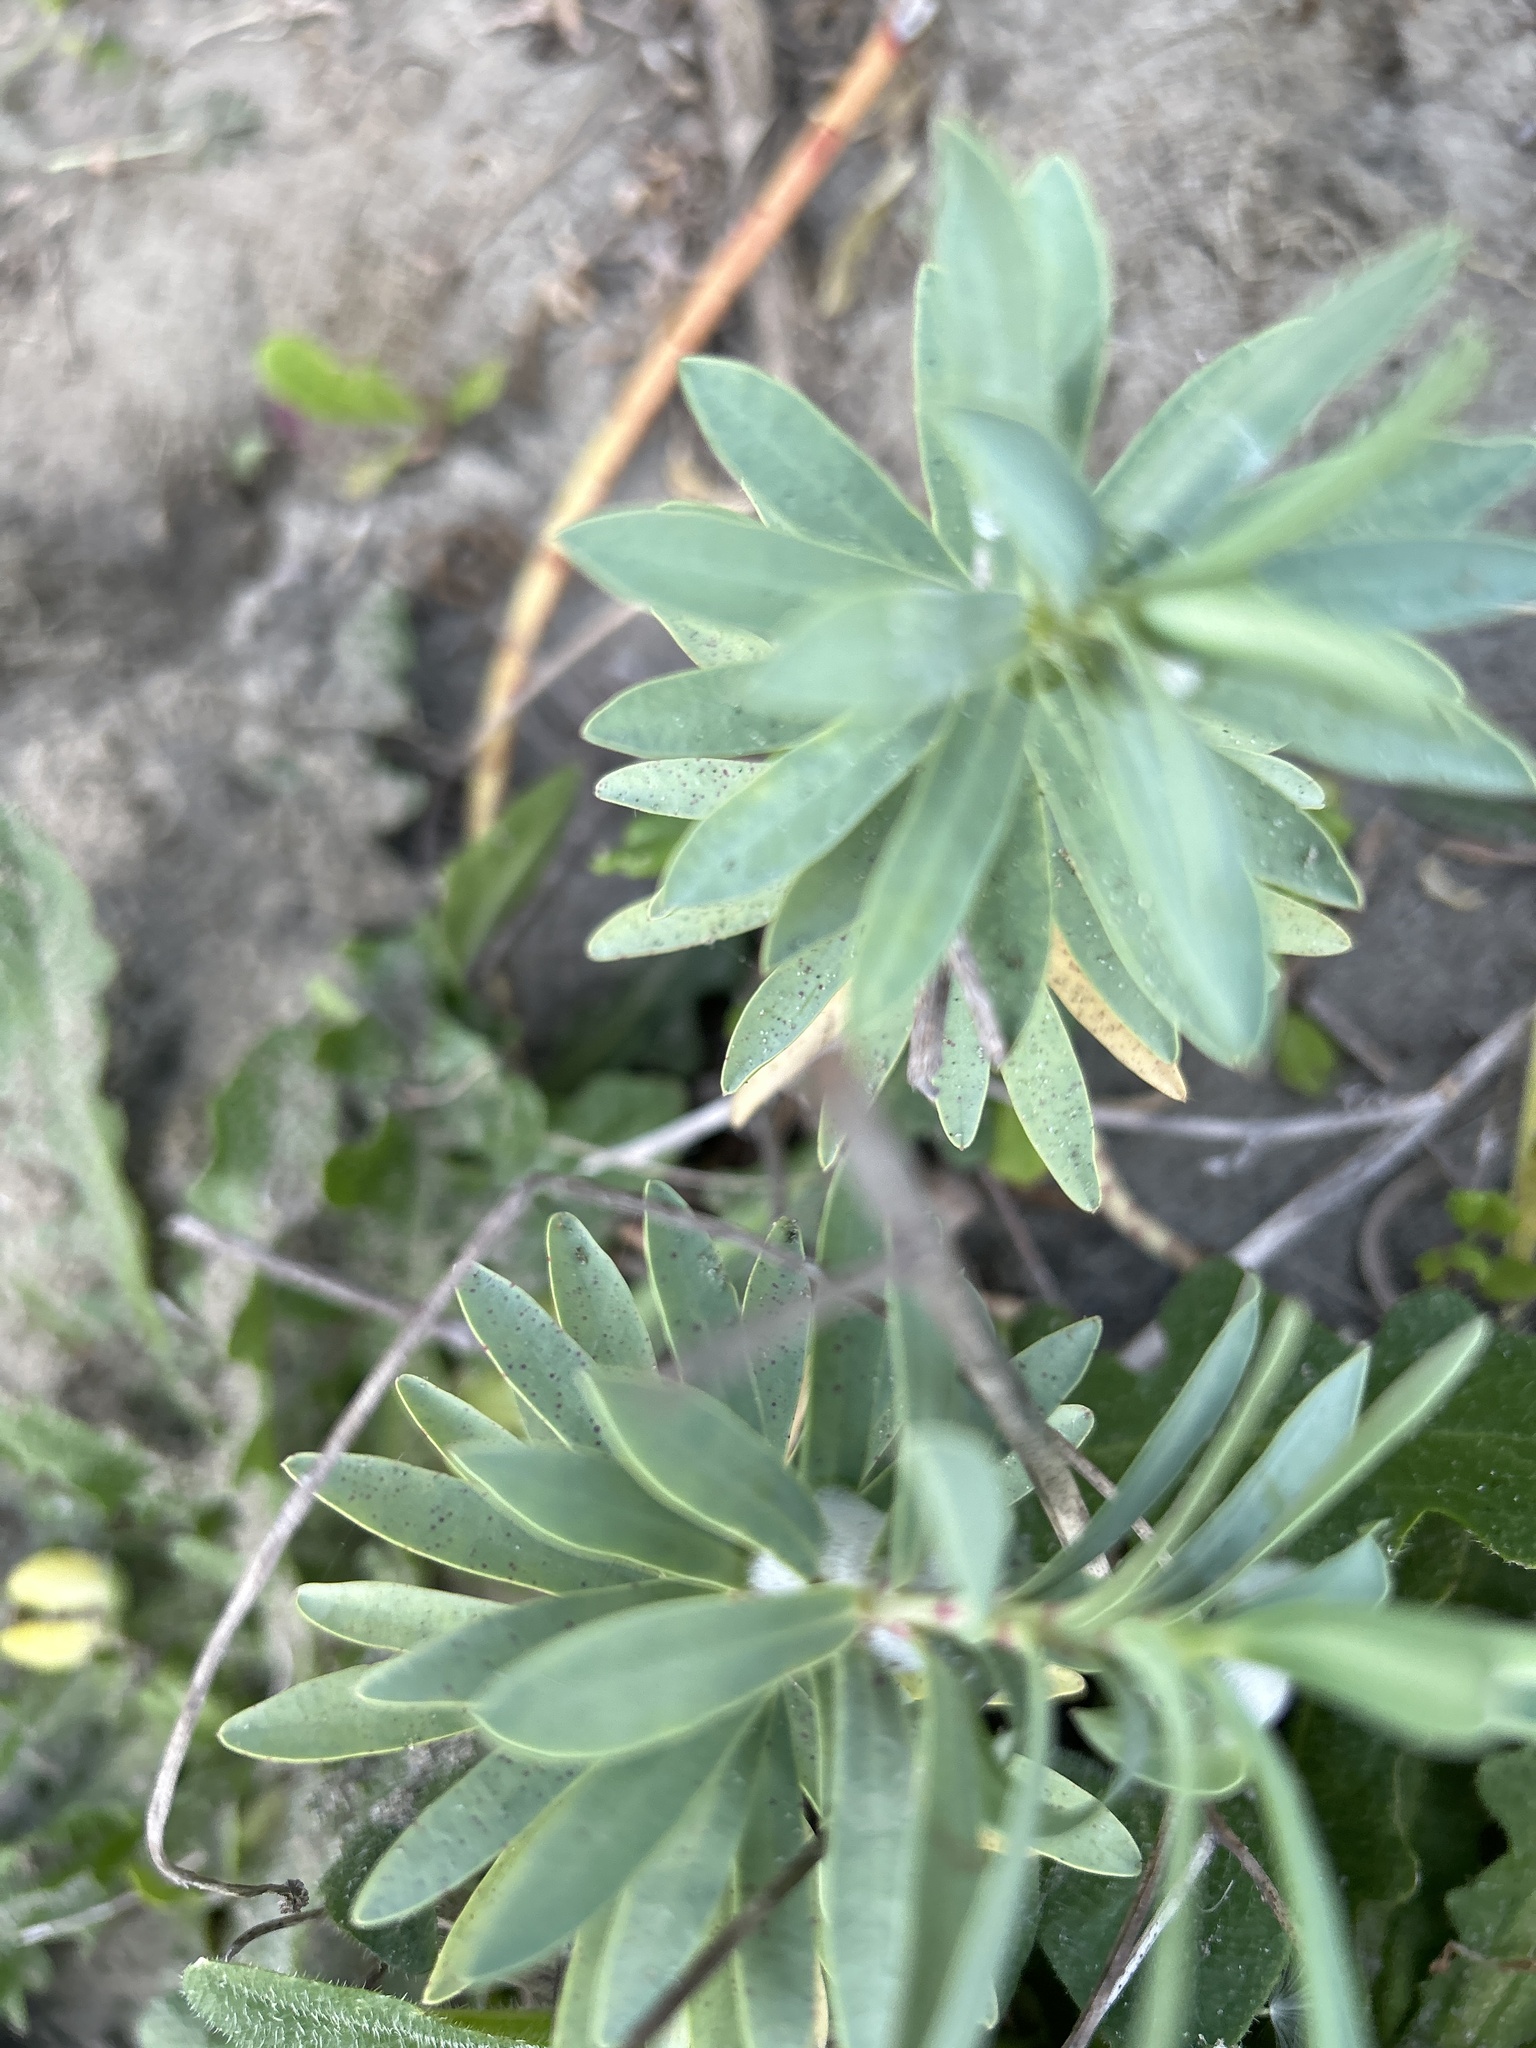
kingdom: Plantae
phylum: Tracheophyta
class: Magnoliopsida
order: Malpighiales
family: Euphorbiaceae
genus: Euphorbia
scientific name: Euphorbia glauca
